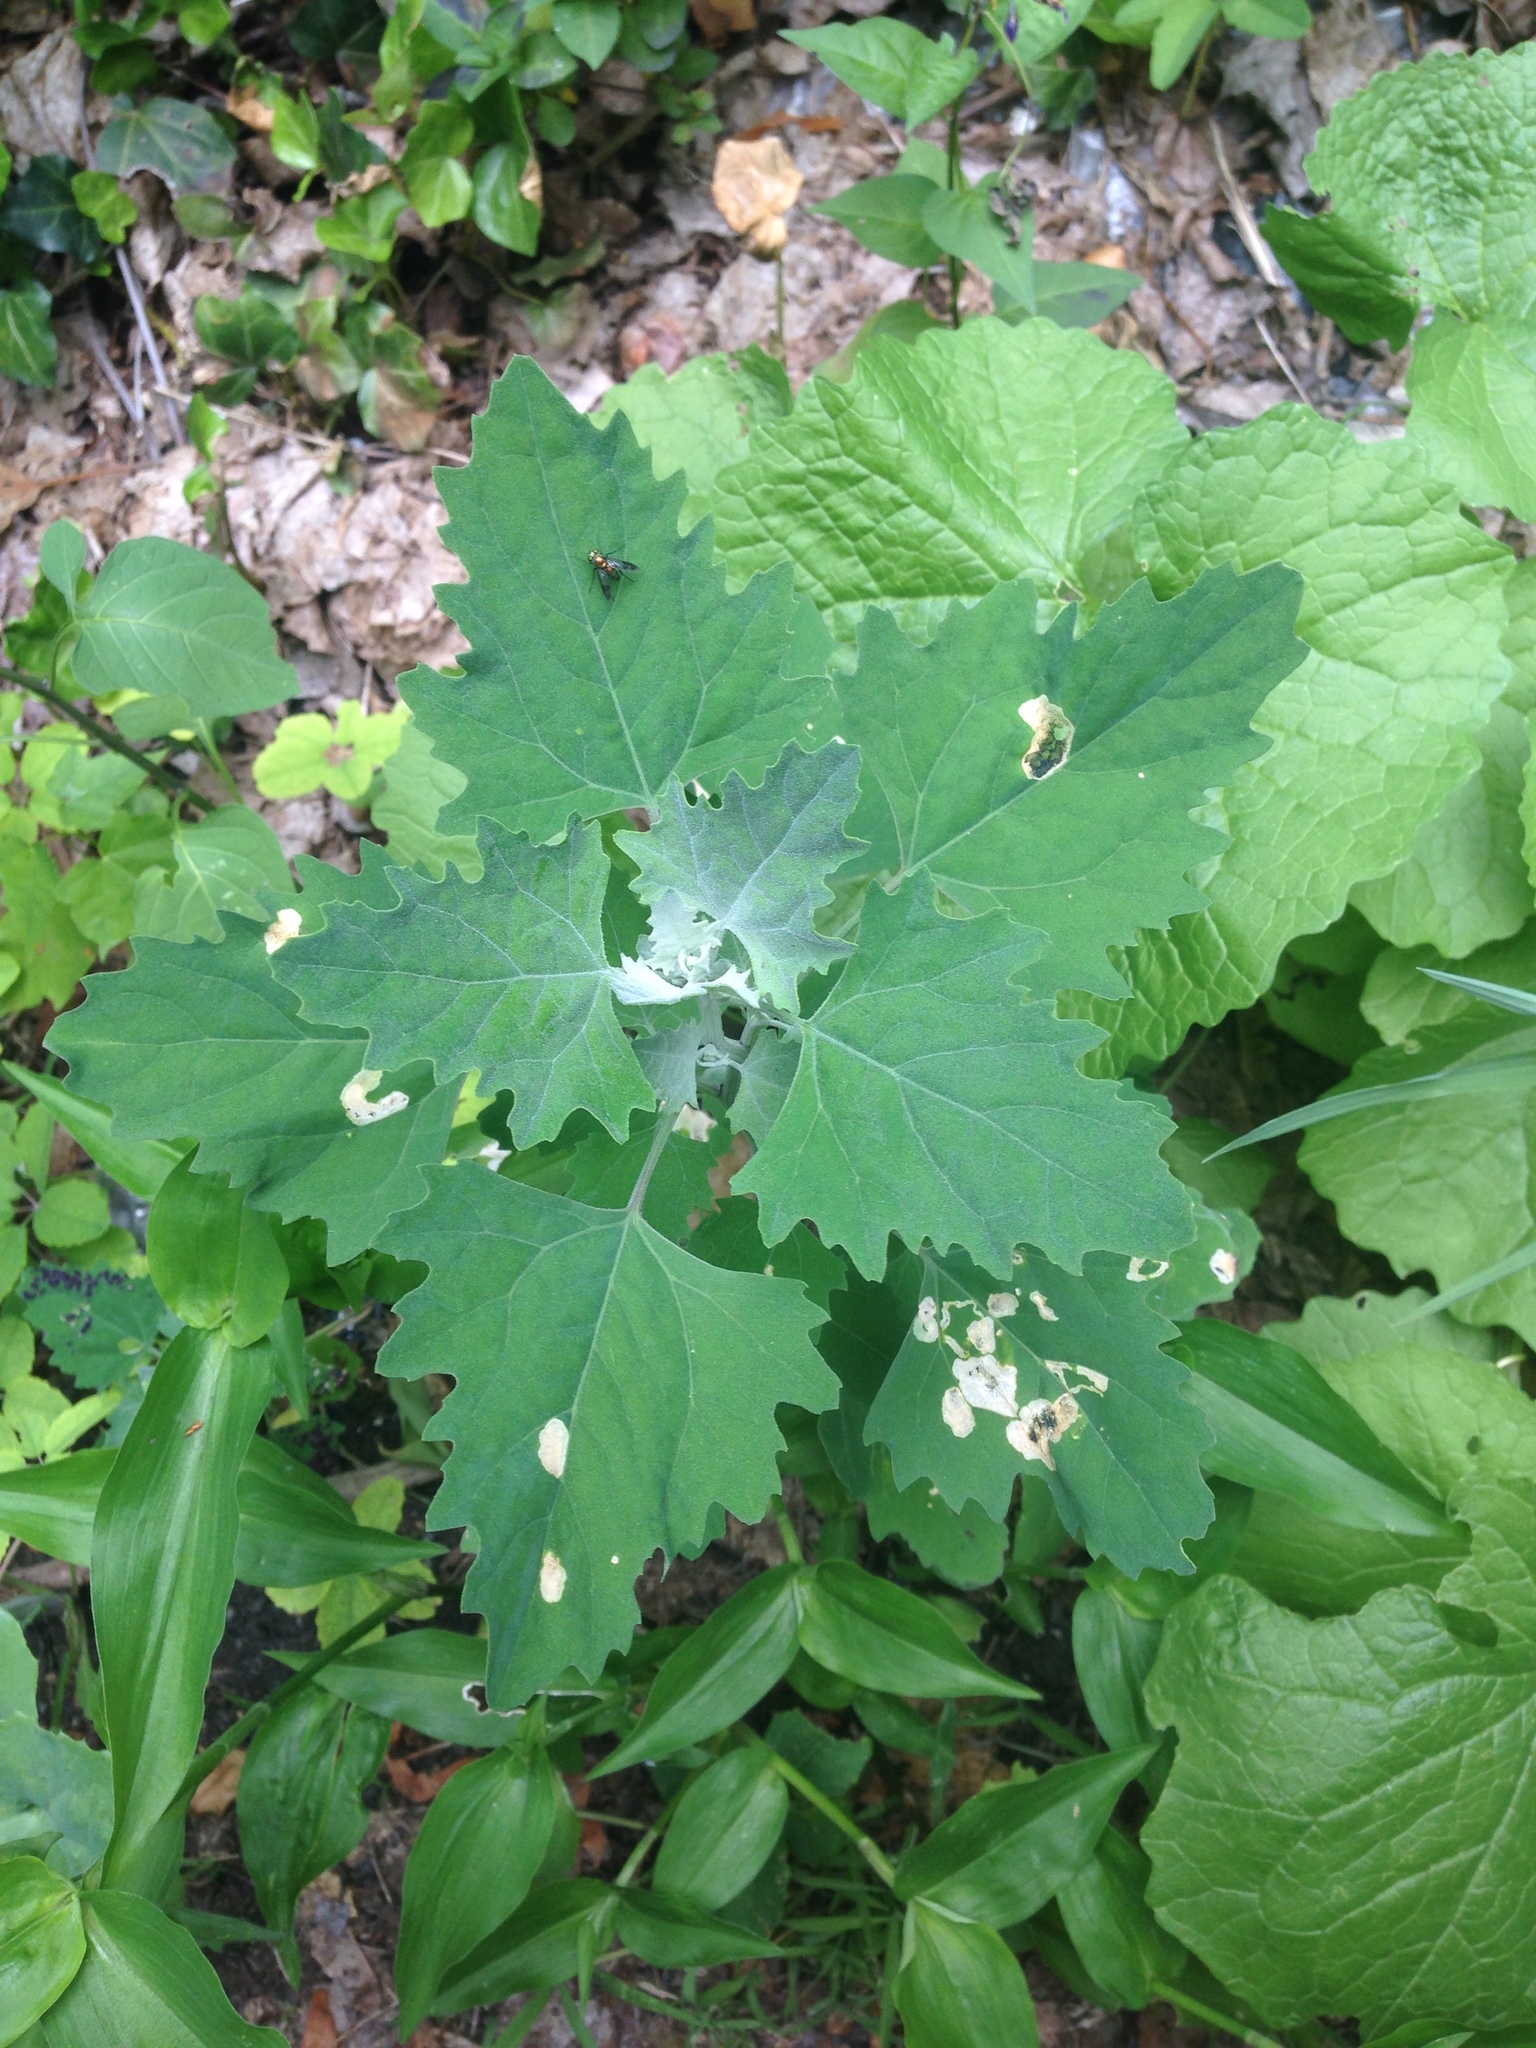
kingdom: Plantae
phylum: Tracheophyta
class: Magnoliopsida
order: Caryophyllales
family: Amaranthaceae
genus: Chenopodium
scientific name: Chenopodium album
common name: Fat-hen
